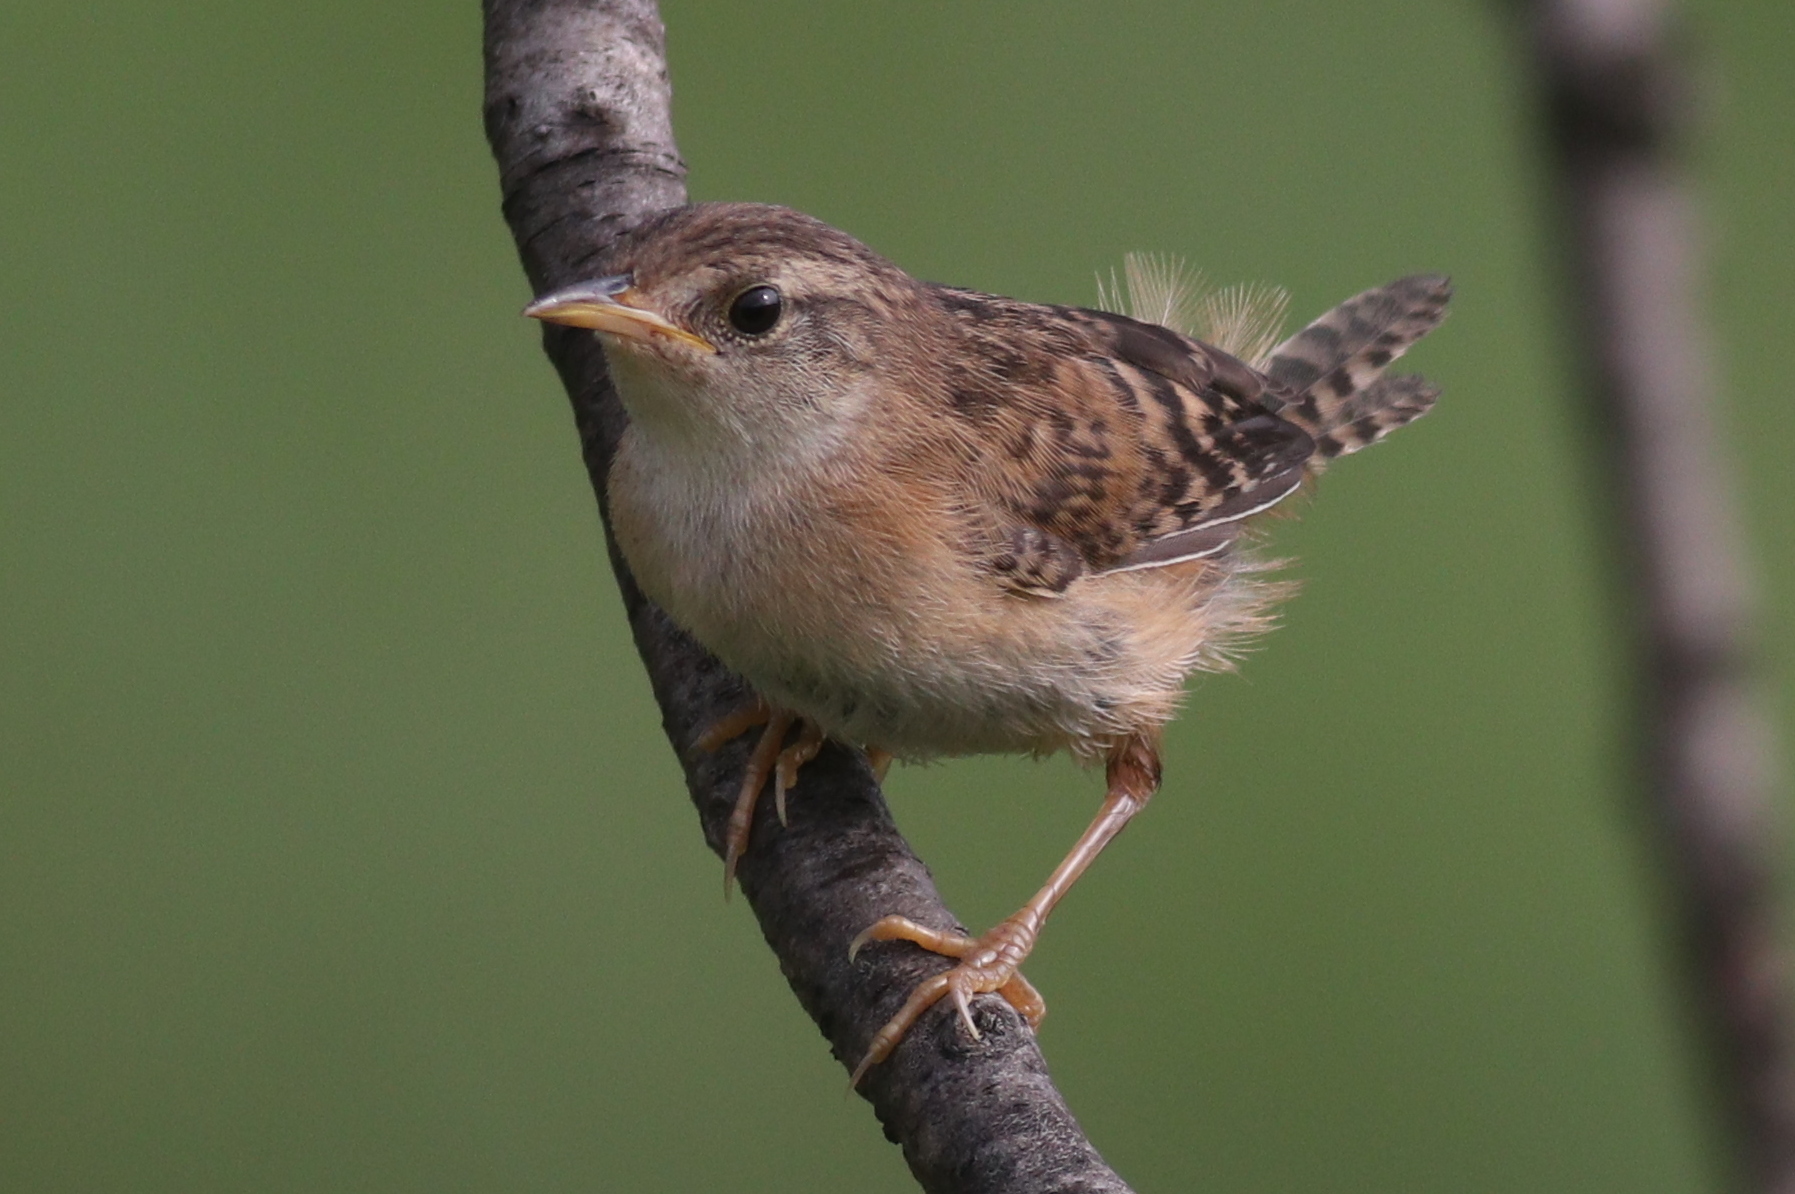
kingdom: Animalia
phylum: Chordata
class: Aves
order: Passeriformes
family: Troglodytidae
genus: Cistothorus
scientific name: Cistothorus platensis
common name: Sedge wren
